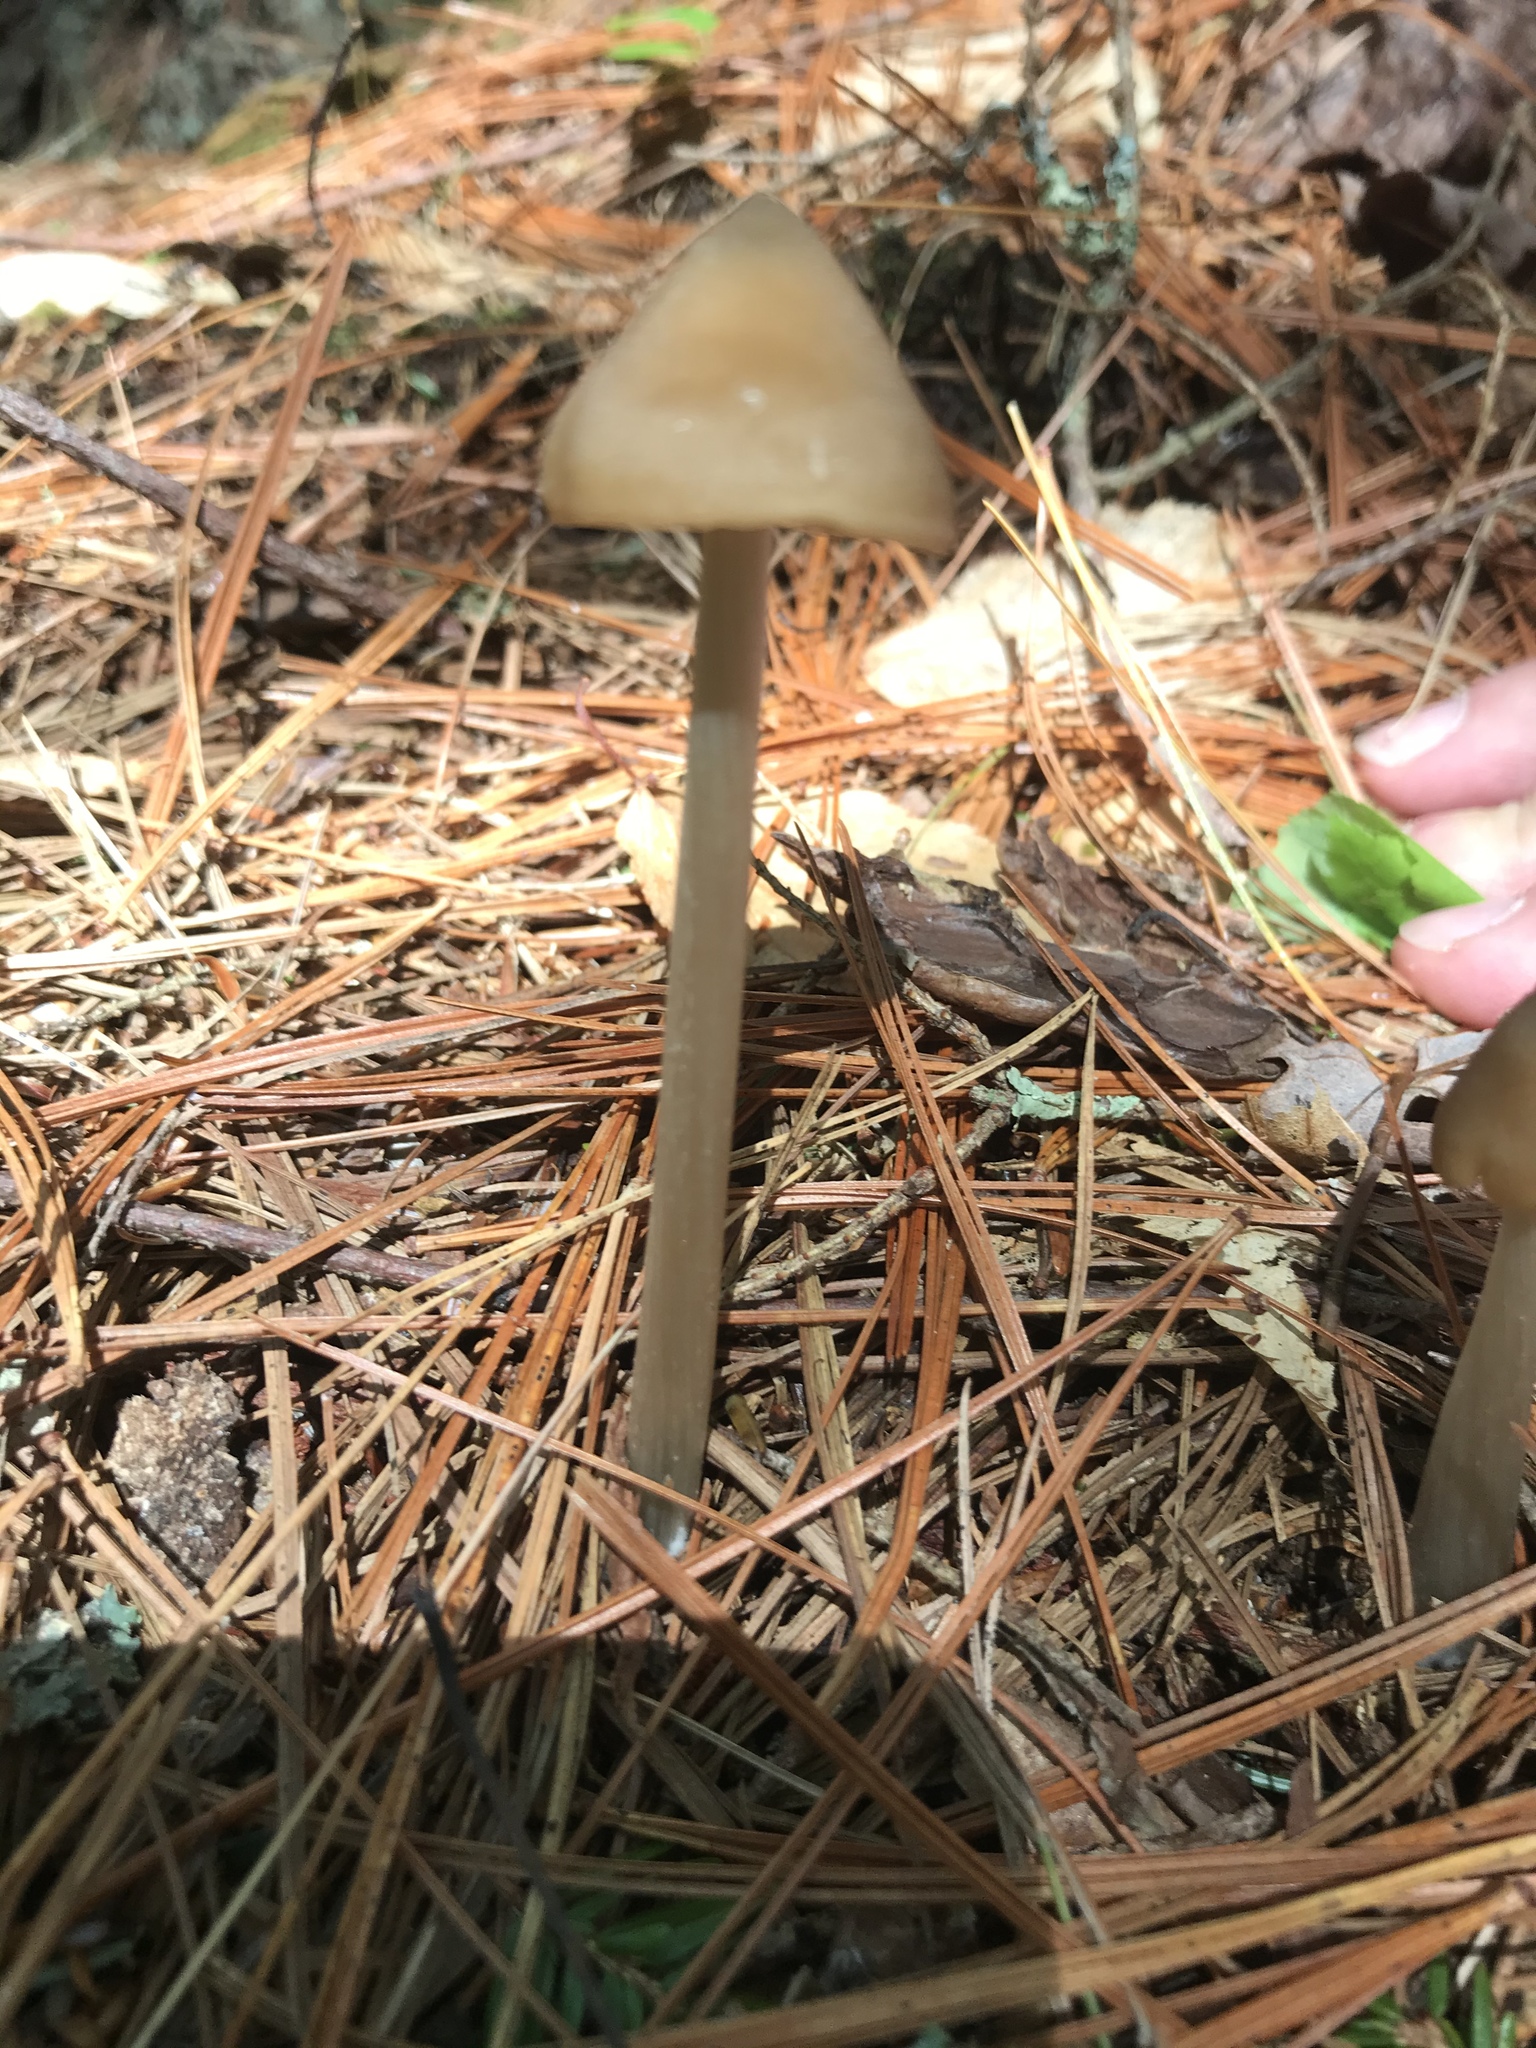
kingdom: Fungi
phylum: Basidiomycota
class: Agaricomycetes
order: Agaricales
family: Entolomataceae
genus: Entoloma
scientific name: Entoloma strictius
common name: Straight-stalked entoloma
